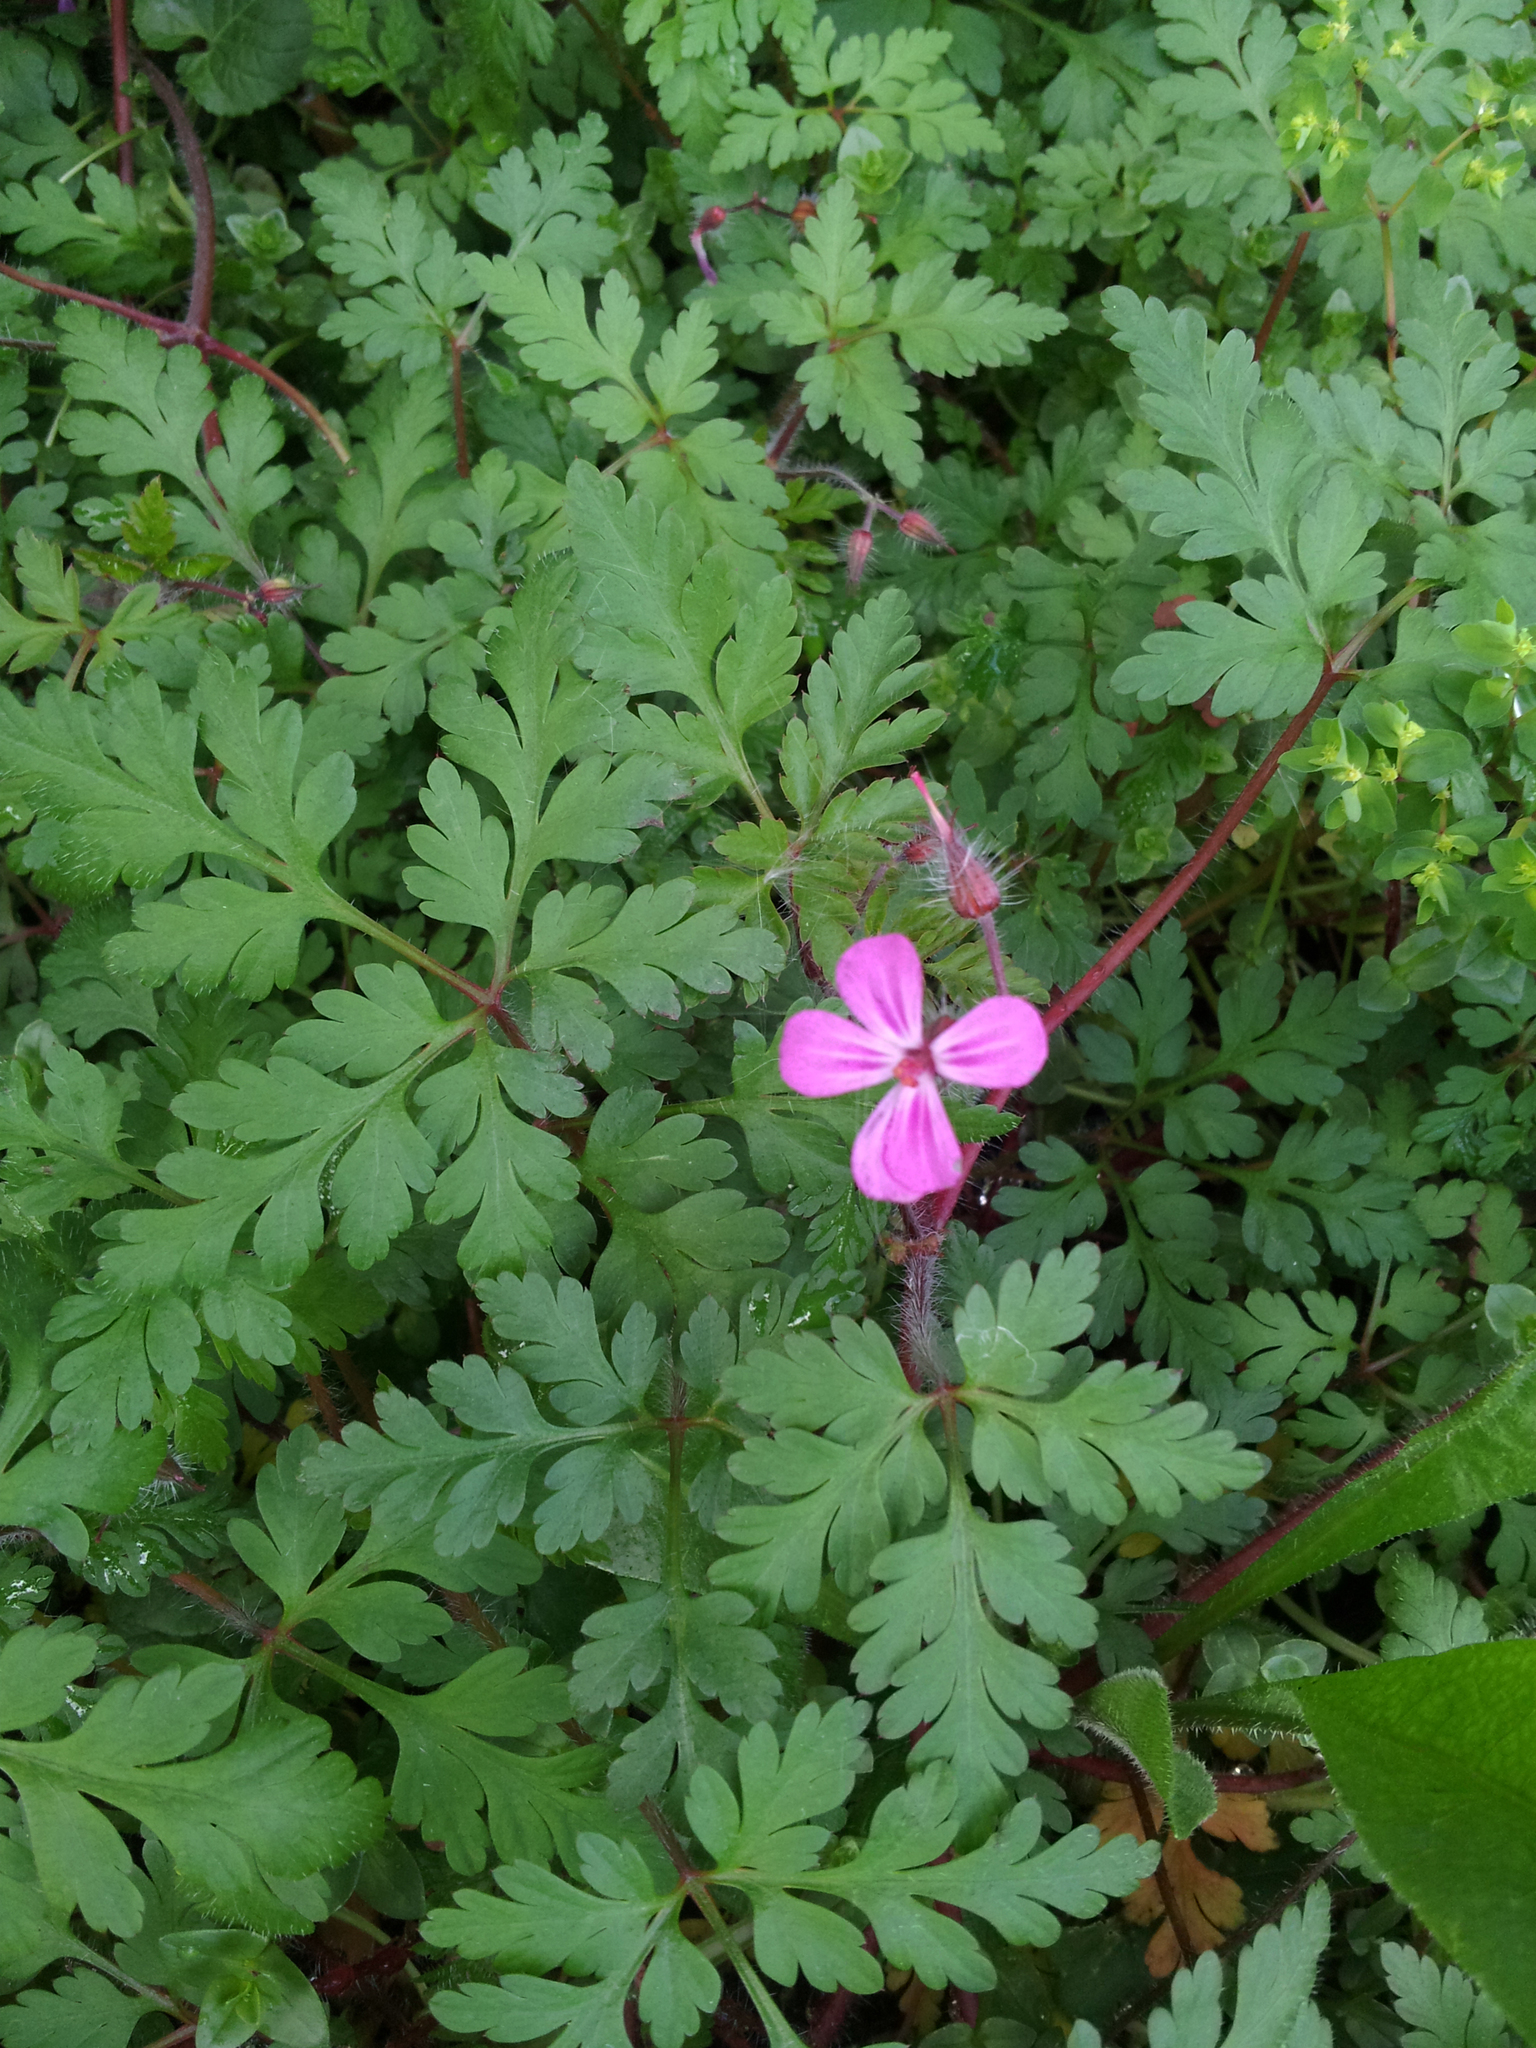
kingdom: Plantae
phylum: Tracheophyta
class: Magnoliopsida
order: Geraniales
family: Geraniaceae
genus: Geranium
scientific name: Geranium yeoi
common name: Greater herb robert
